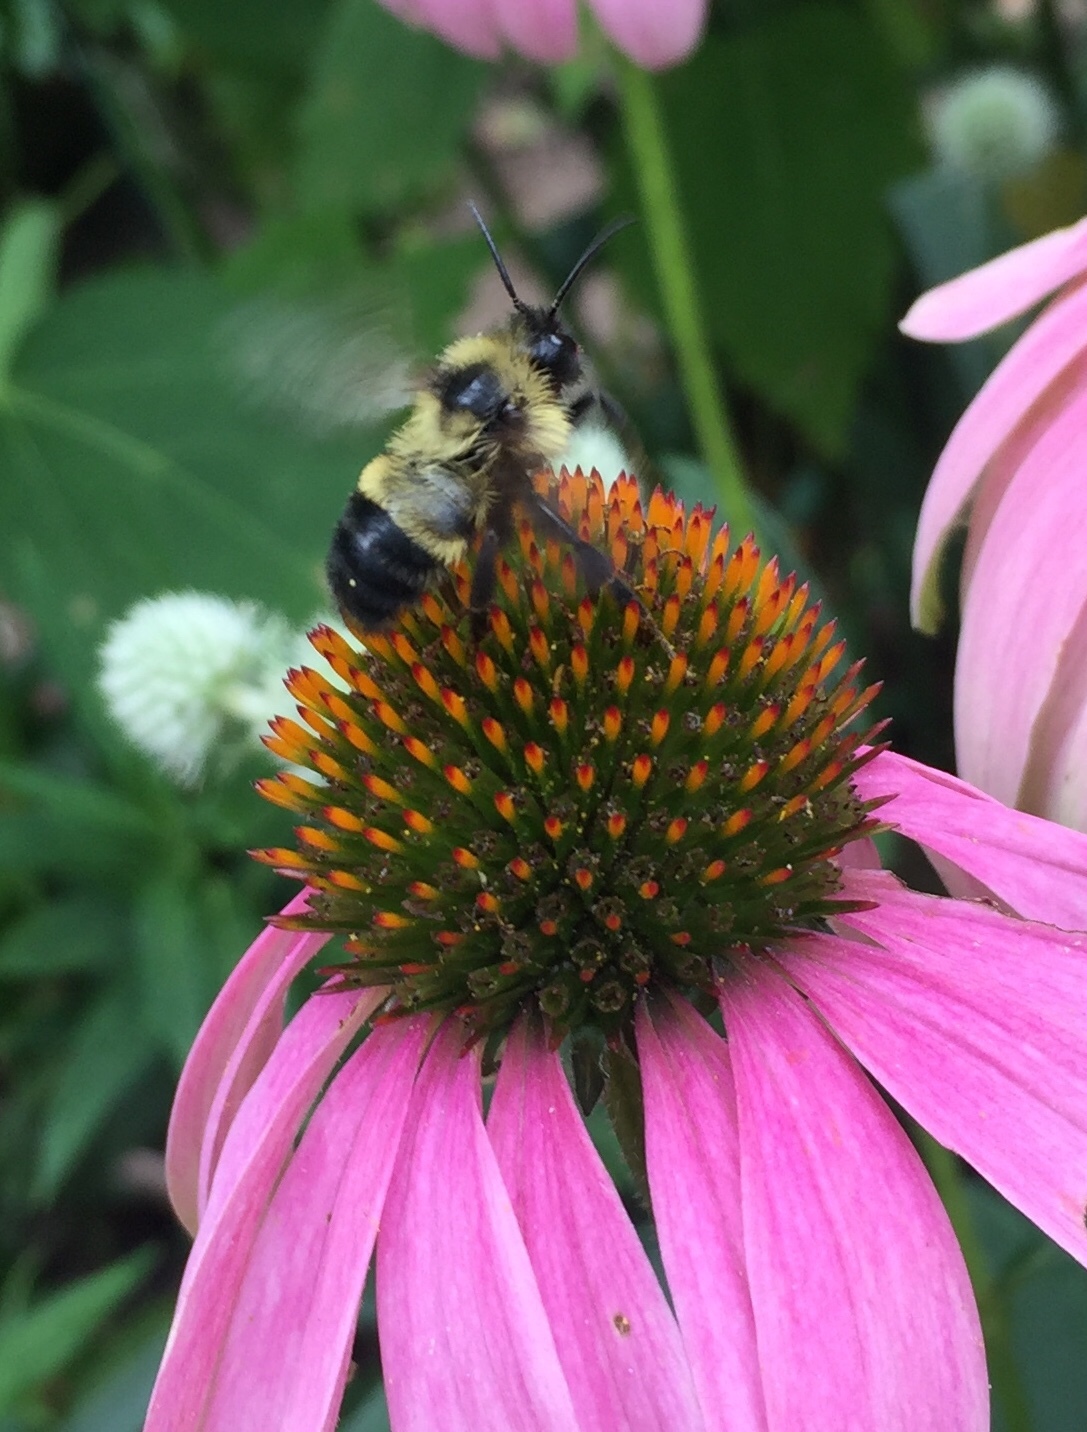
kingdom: Animalia
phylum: Arthropoda
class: Insecta
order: Hymenoptera
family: Apidae
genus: Bombus
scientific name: Bombus citrinus
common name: Lemon cuckoo bumble bee
